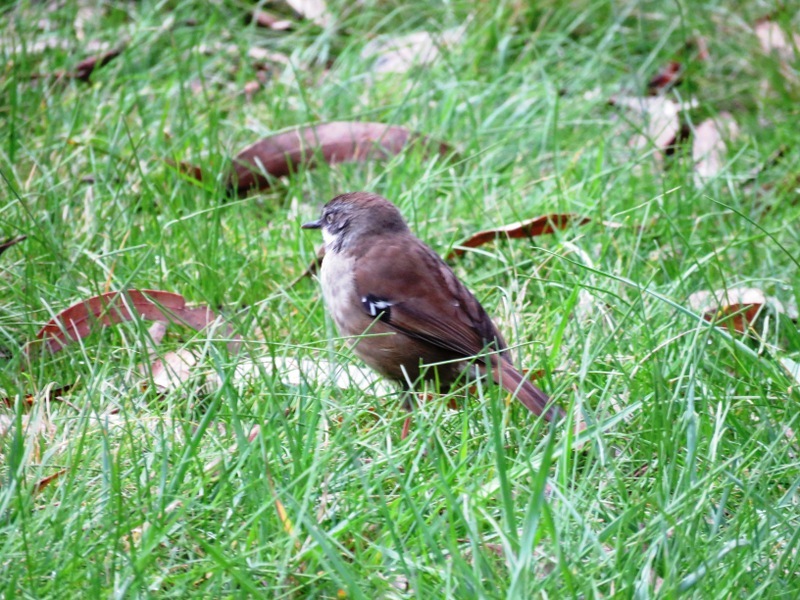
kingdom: Animalia
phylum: Chordata
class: Aves
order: Passeriformes
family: Acanthizidae
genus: Sericornis
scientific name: Sericornis frontalis
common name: White-browed scrubwren
